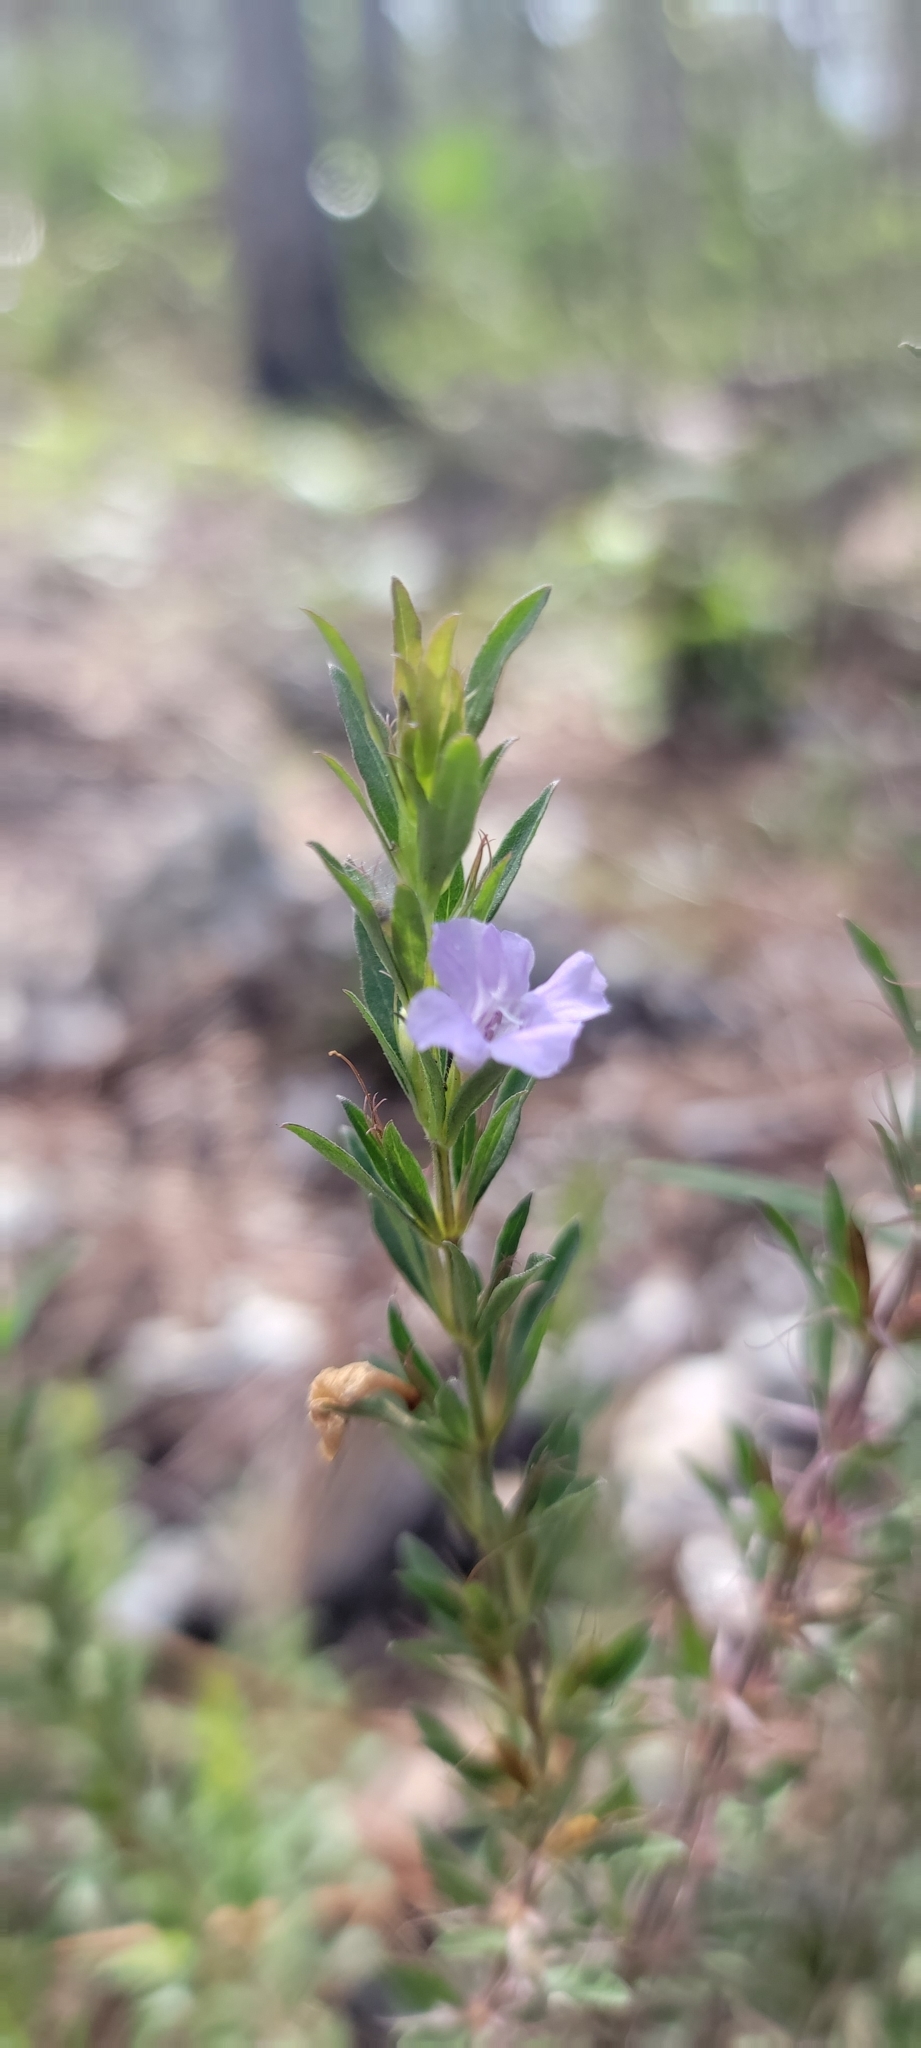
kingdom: Plantae
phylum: Tracheophyta
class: Magnoliopsida
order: Lamiales
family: Acanthaceae
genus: Dyschoriste
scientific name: Dyschoriste angusta
